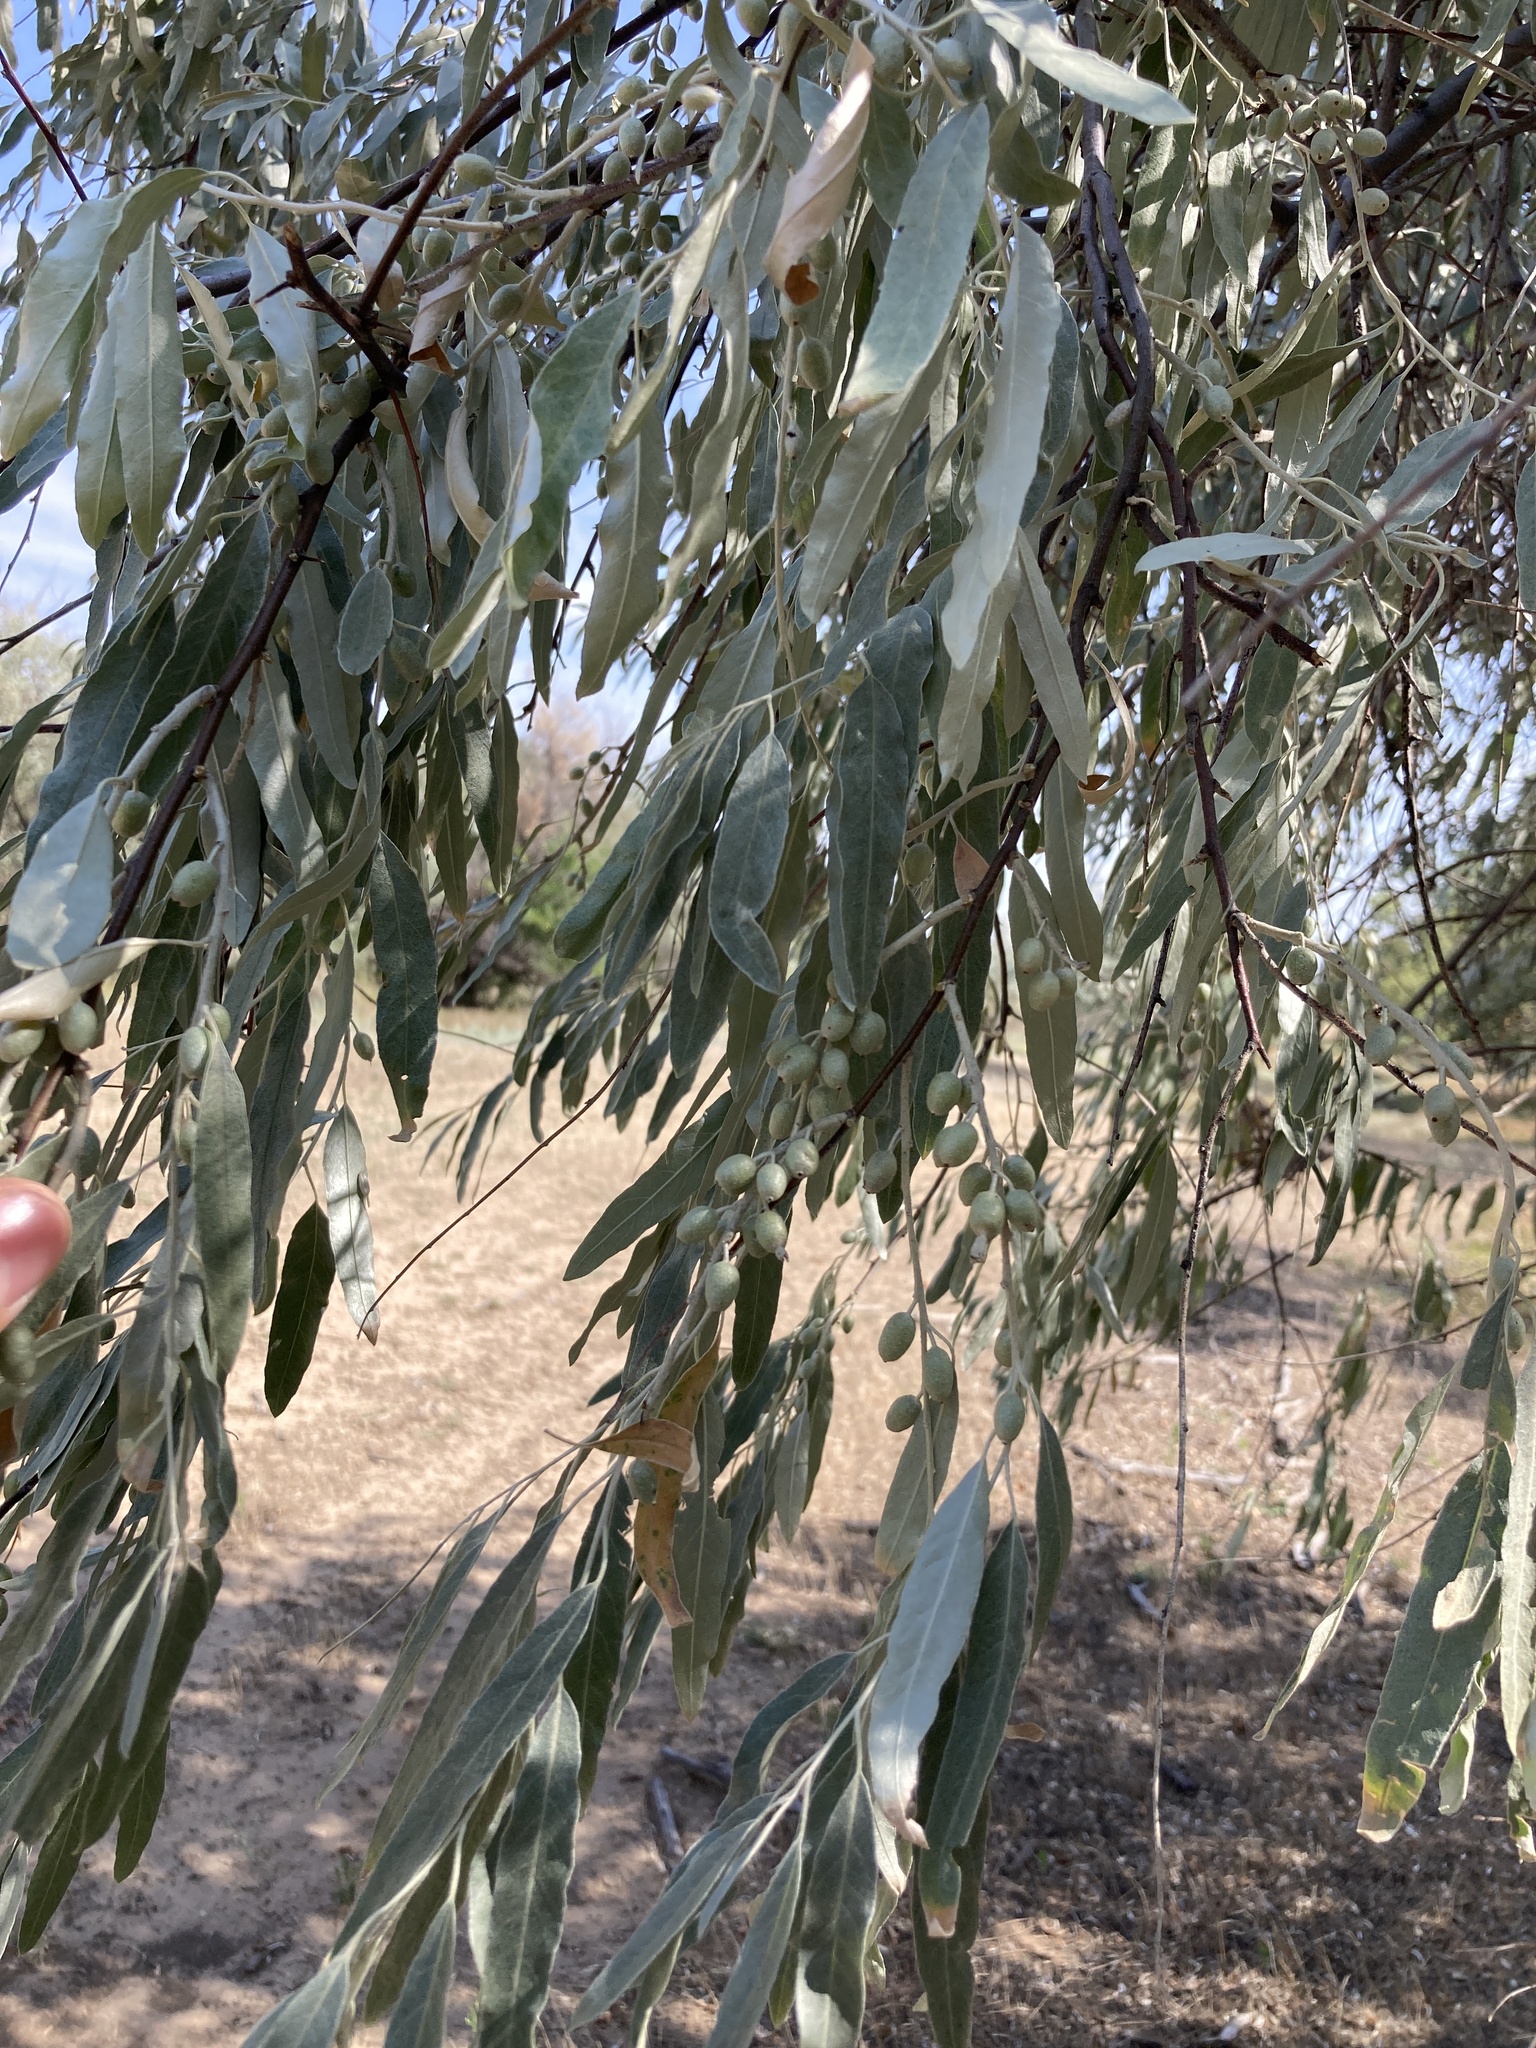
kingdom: Plantae
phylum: Tracheophyta
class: Magnoliopsida
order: Rosales
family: Elaeagnaceae
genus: Elaeagnus
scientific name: Elaeagnus angustifolia
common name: Russian olive
